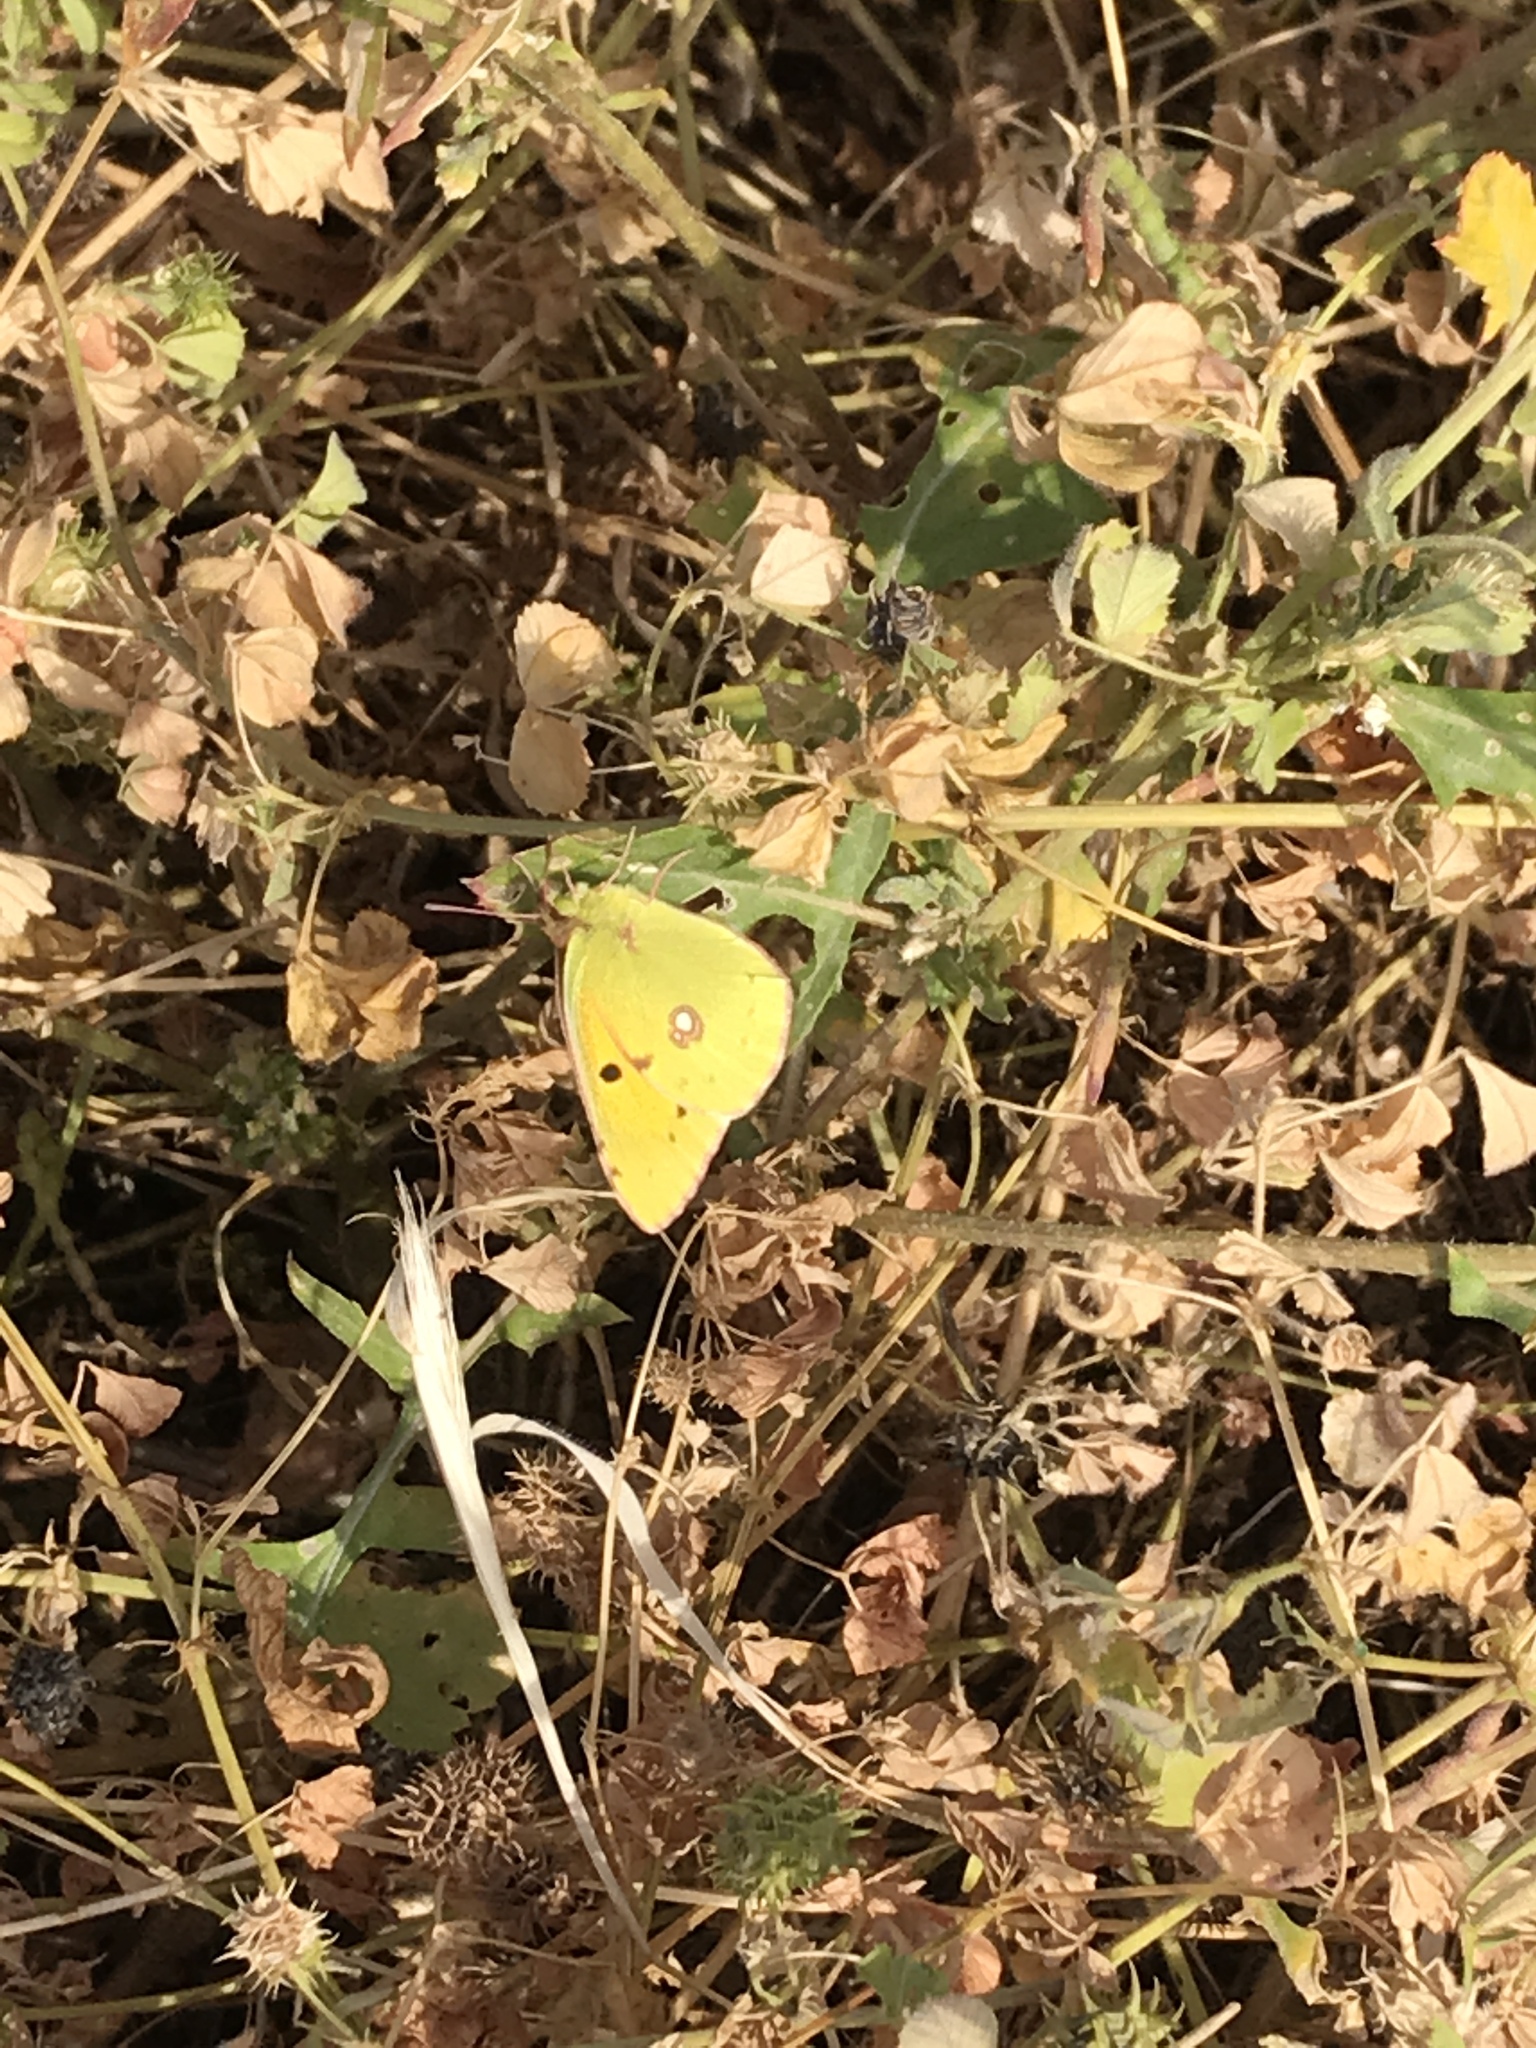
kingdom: Animalia
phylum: Arthropoda
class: Insecta
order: Lepidoptera
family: Pieridae
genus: Colias
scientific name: Colias croceus
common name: Clouded yellow
